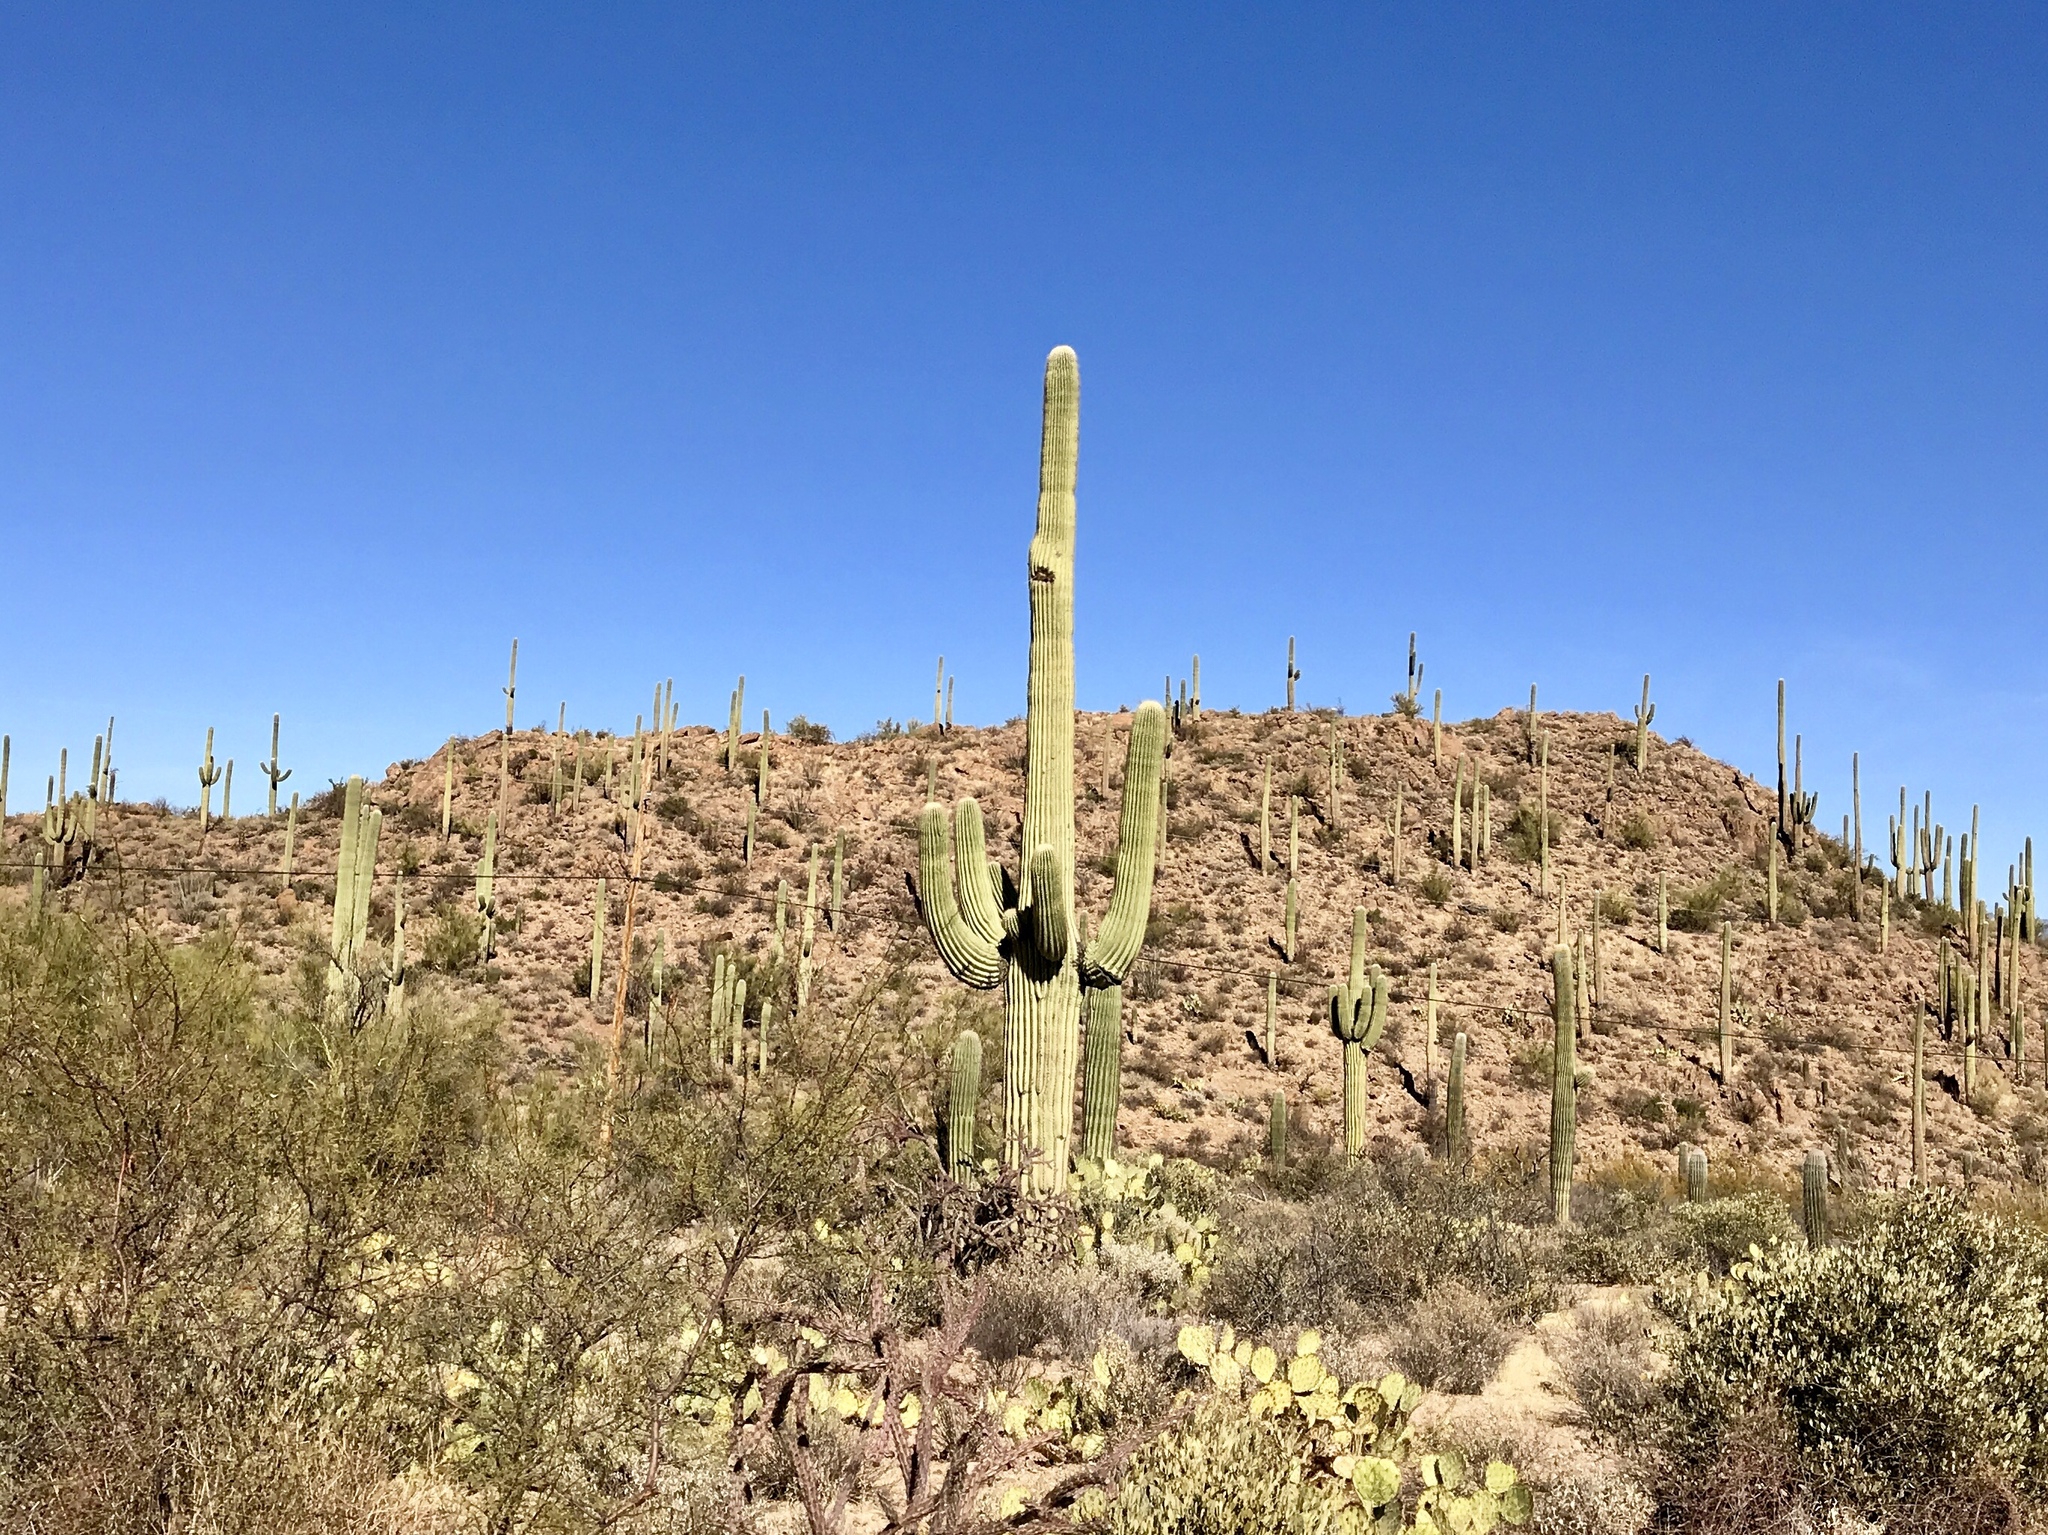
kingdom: Plantae
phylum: Tracheophyta
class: Magnoliopsida
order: Caryophyllales
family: Cactaceae
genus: Carnegiea
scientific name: Carnegiea gigantea
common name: Saguaro
